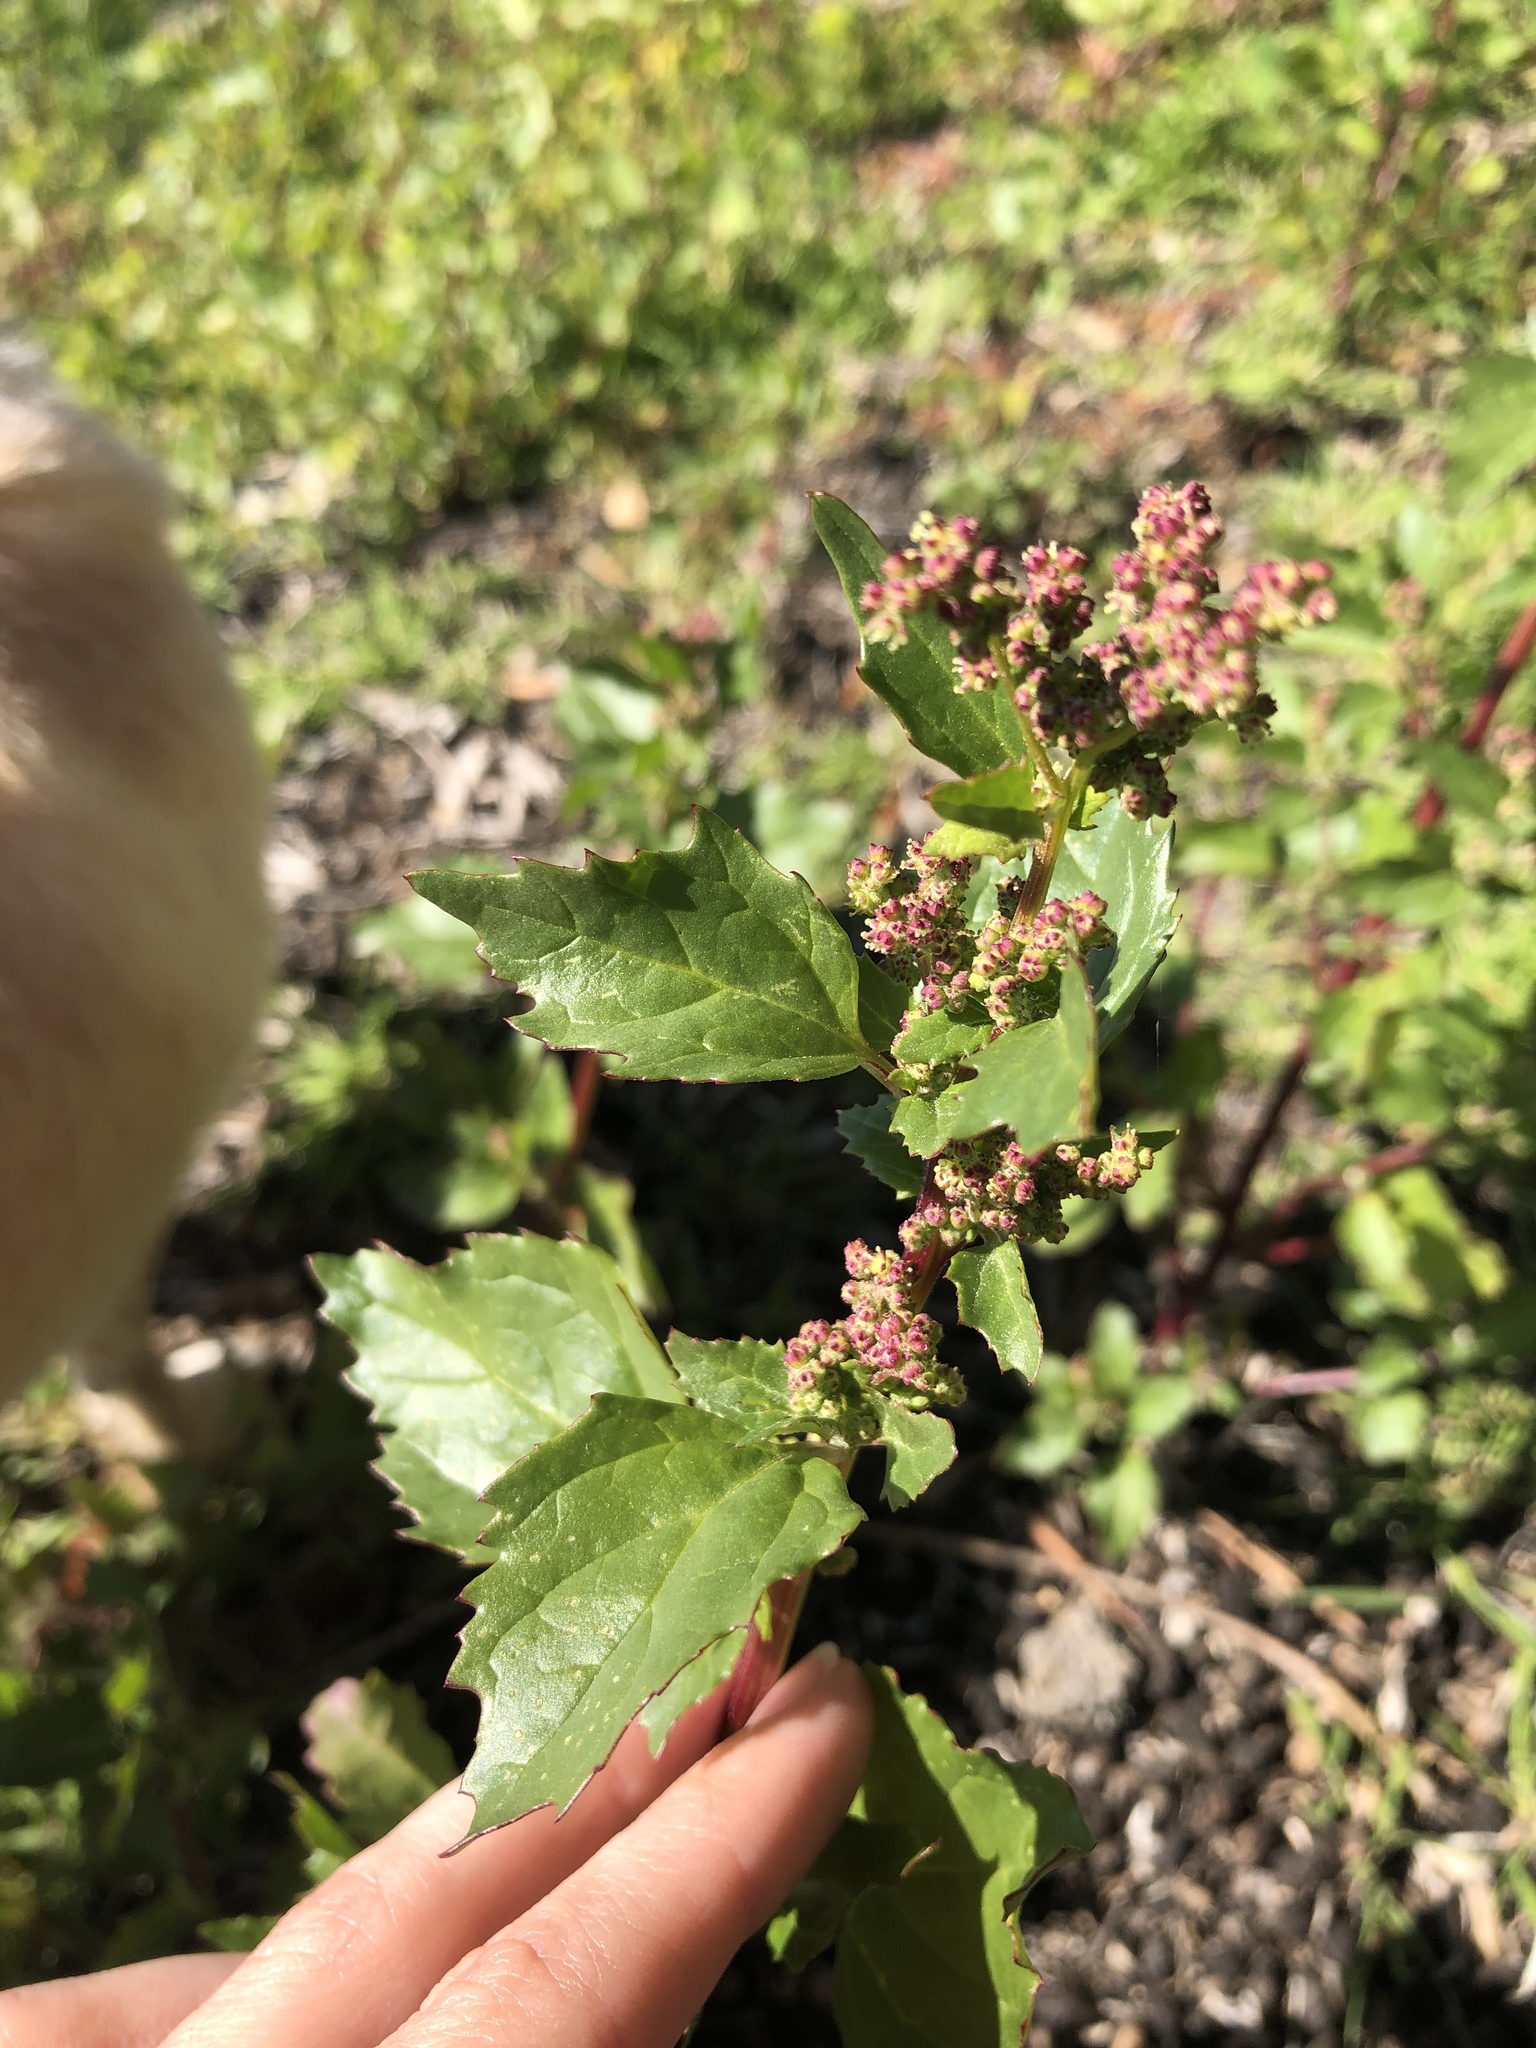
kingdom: Plantae
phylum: Tracheophyta
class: Magnoliopsida
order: Caryophyllales
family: Amaranthaceae
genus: Chenopodiastrum
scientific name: Chenopodiastrum murale
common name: Sowbane
